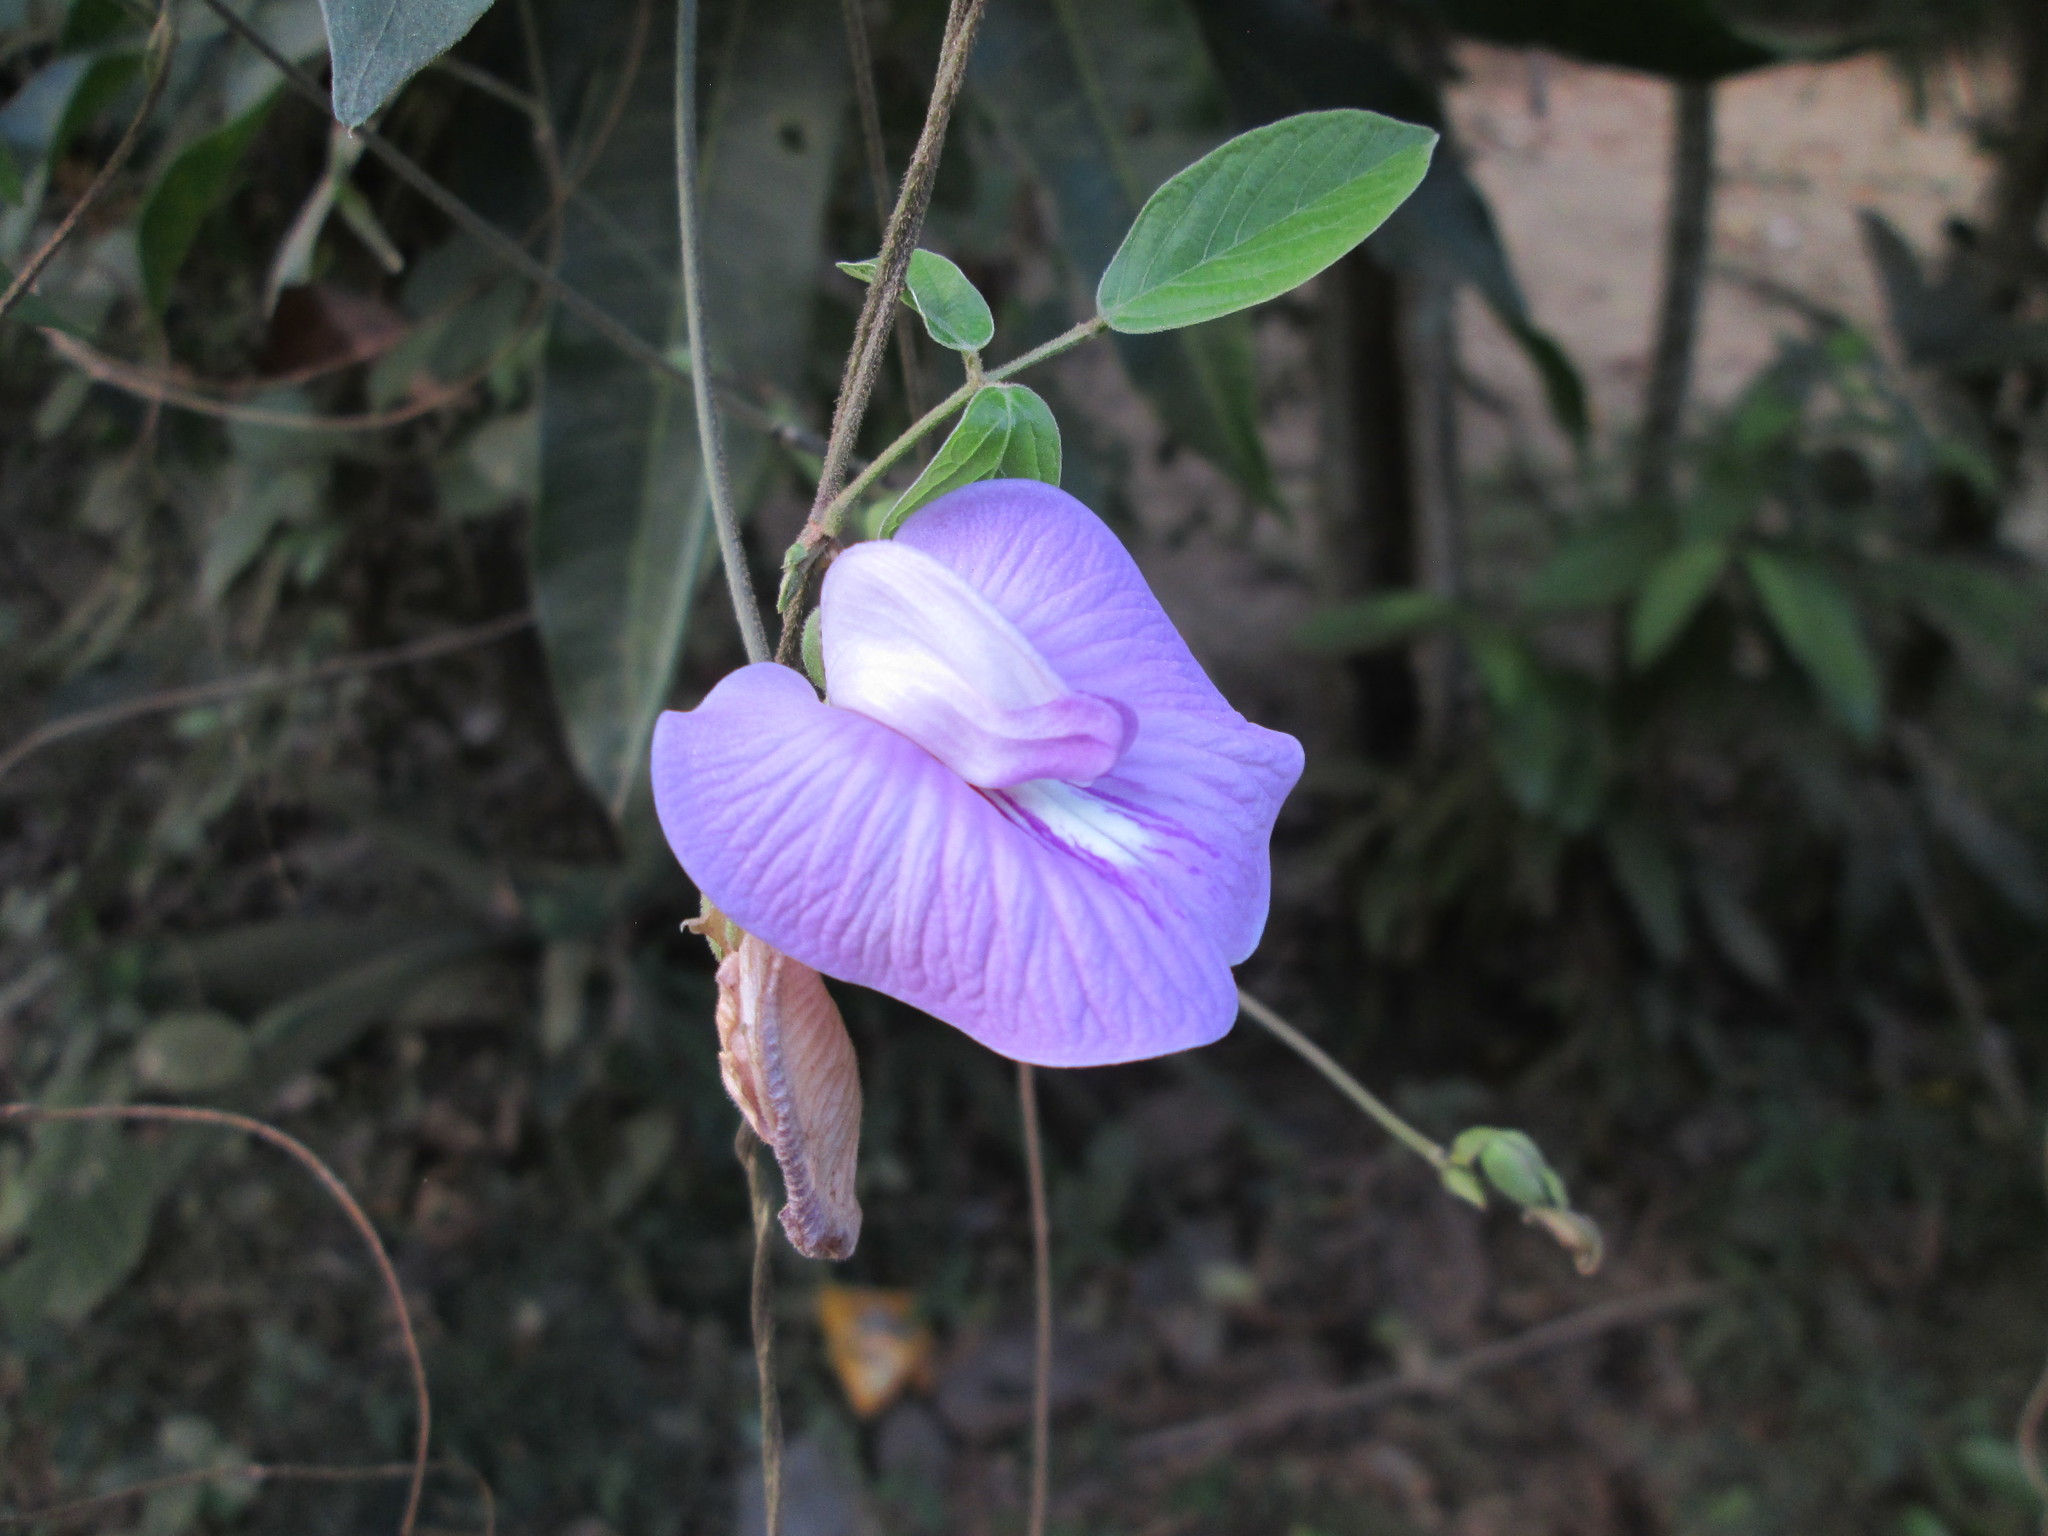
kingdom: Plantae
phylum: Tracheophyta
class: Magnoliopsida
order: Fabales
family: Fabaceae
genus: Centrosema
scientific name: Centrosema pubescens
